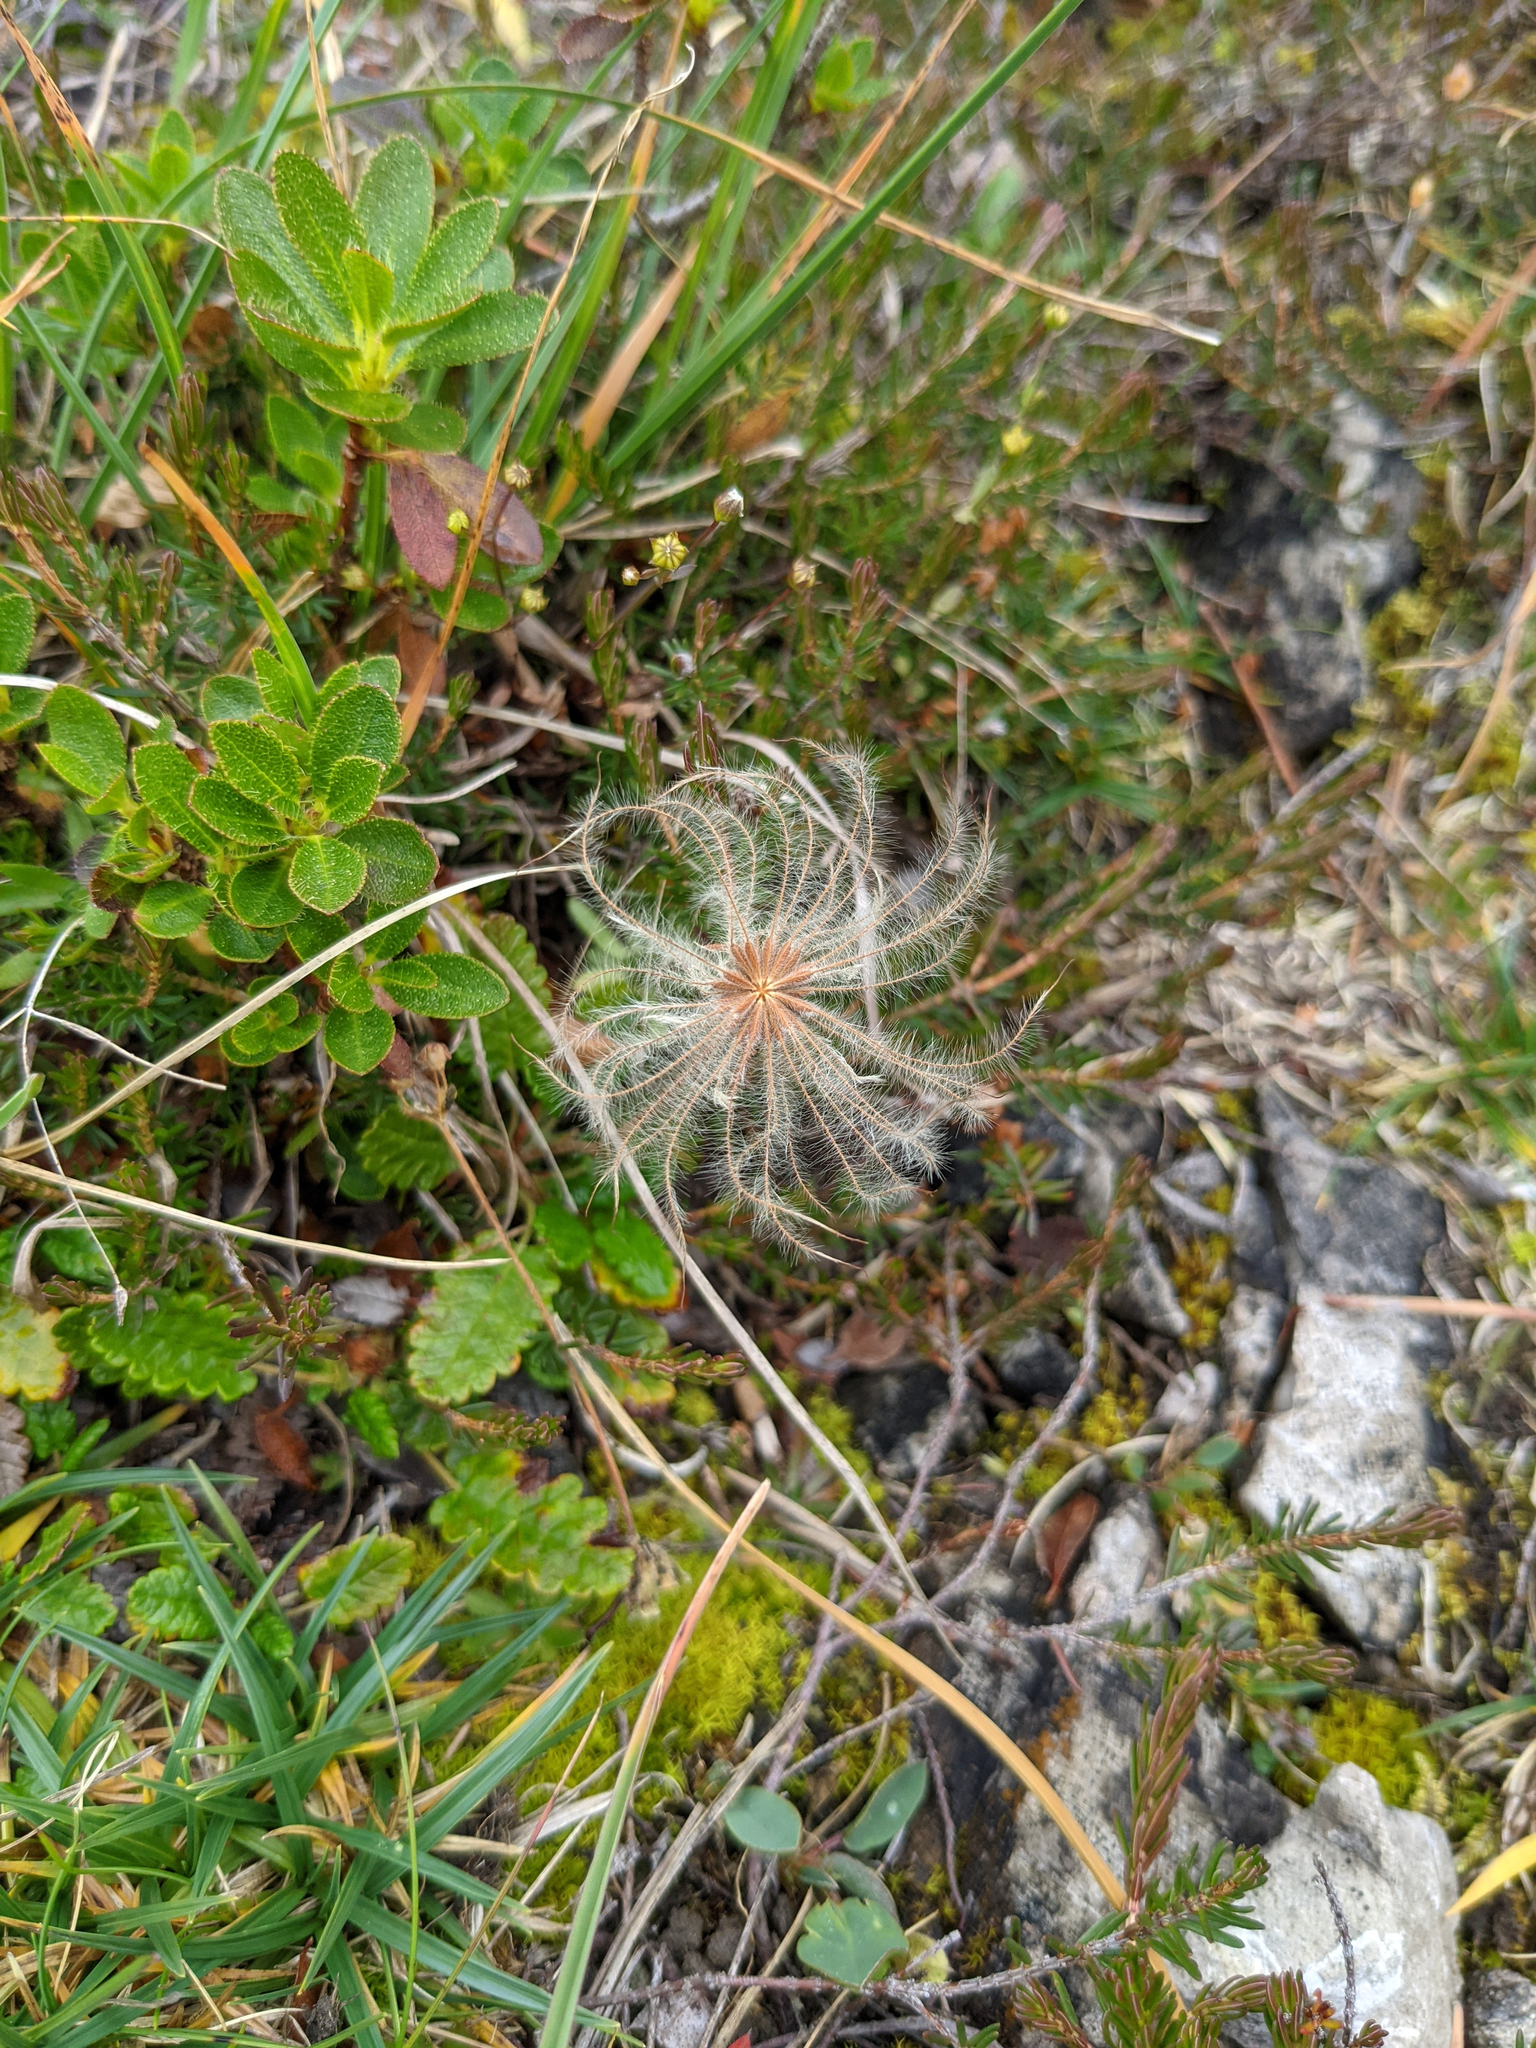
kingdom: Plantae
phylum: Tracheophyta
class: Magnoliopsida
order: Rosales
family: Rosaceae
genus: Dryas
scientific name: Dryas octopetala
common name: Eight-petal mountain-avens
